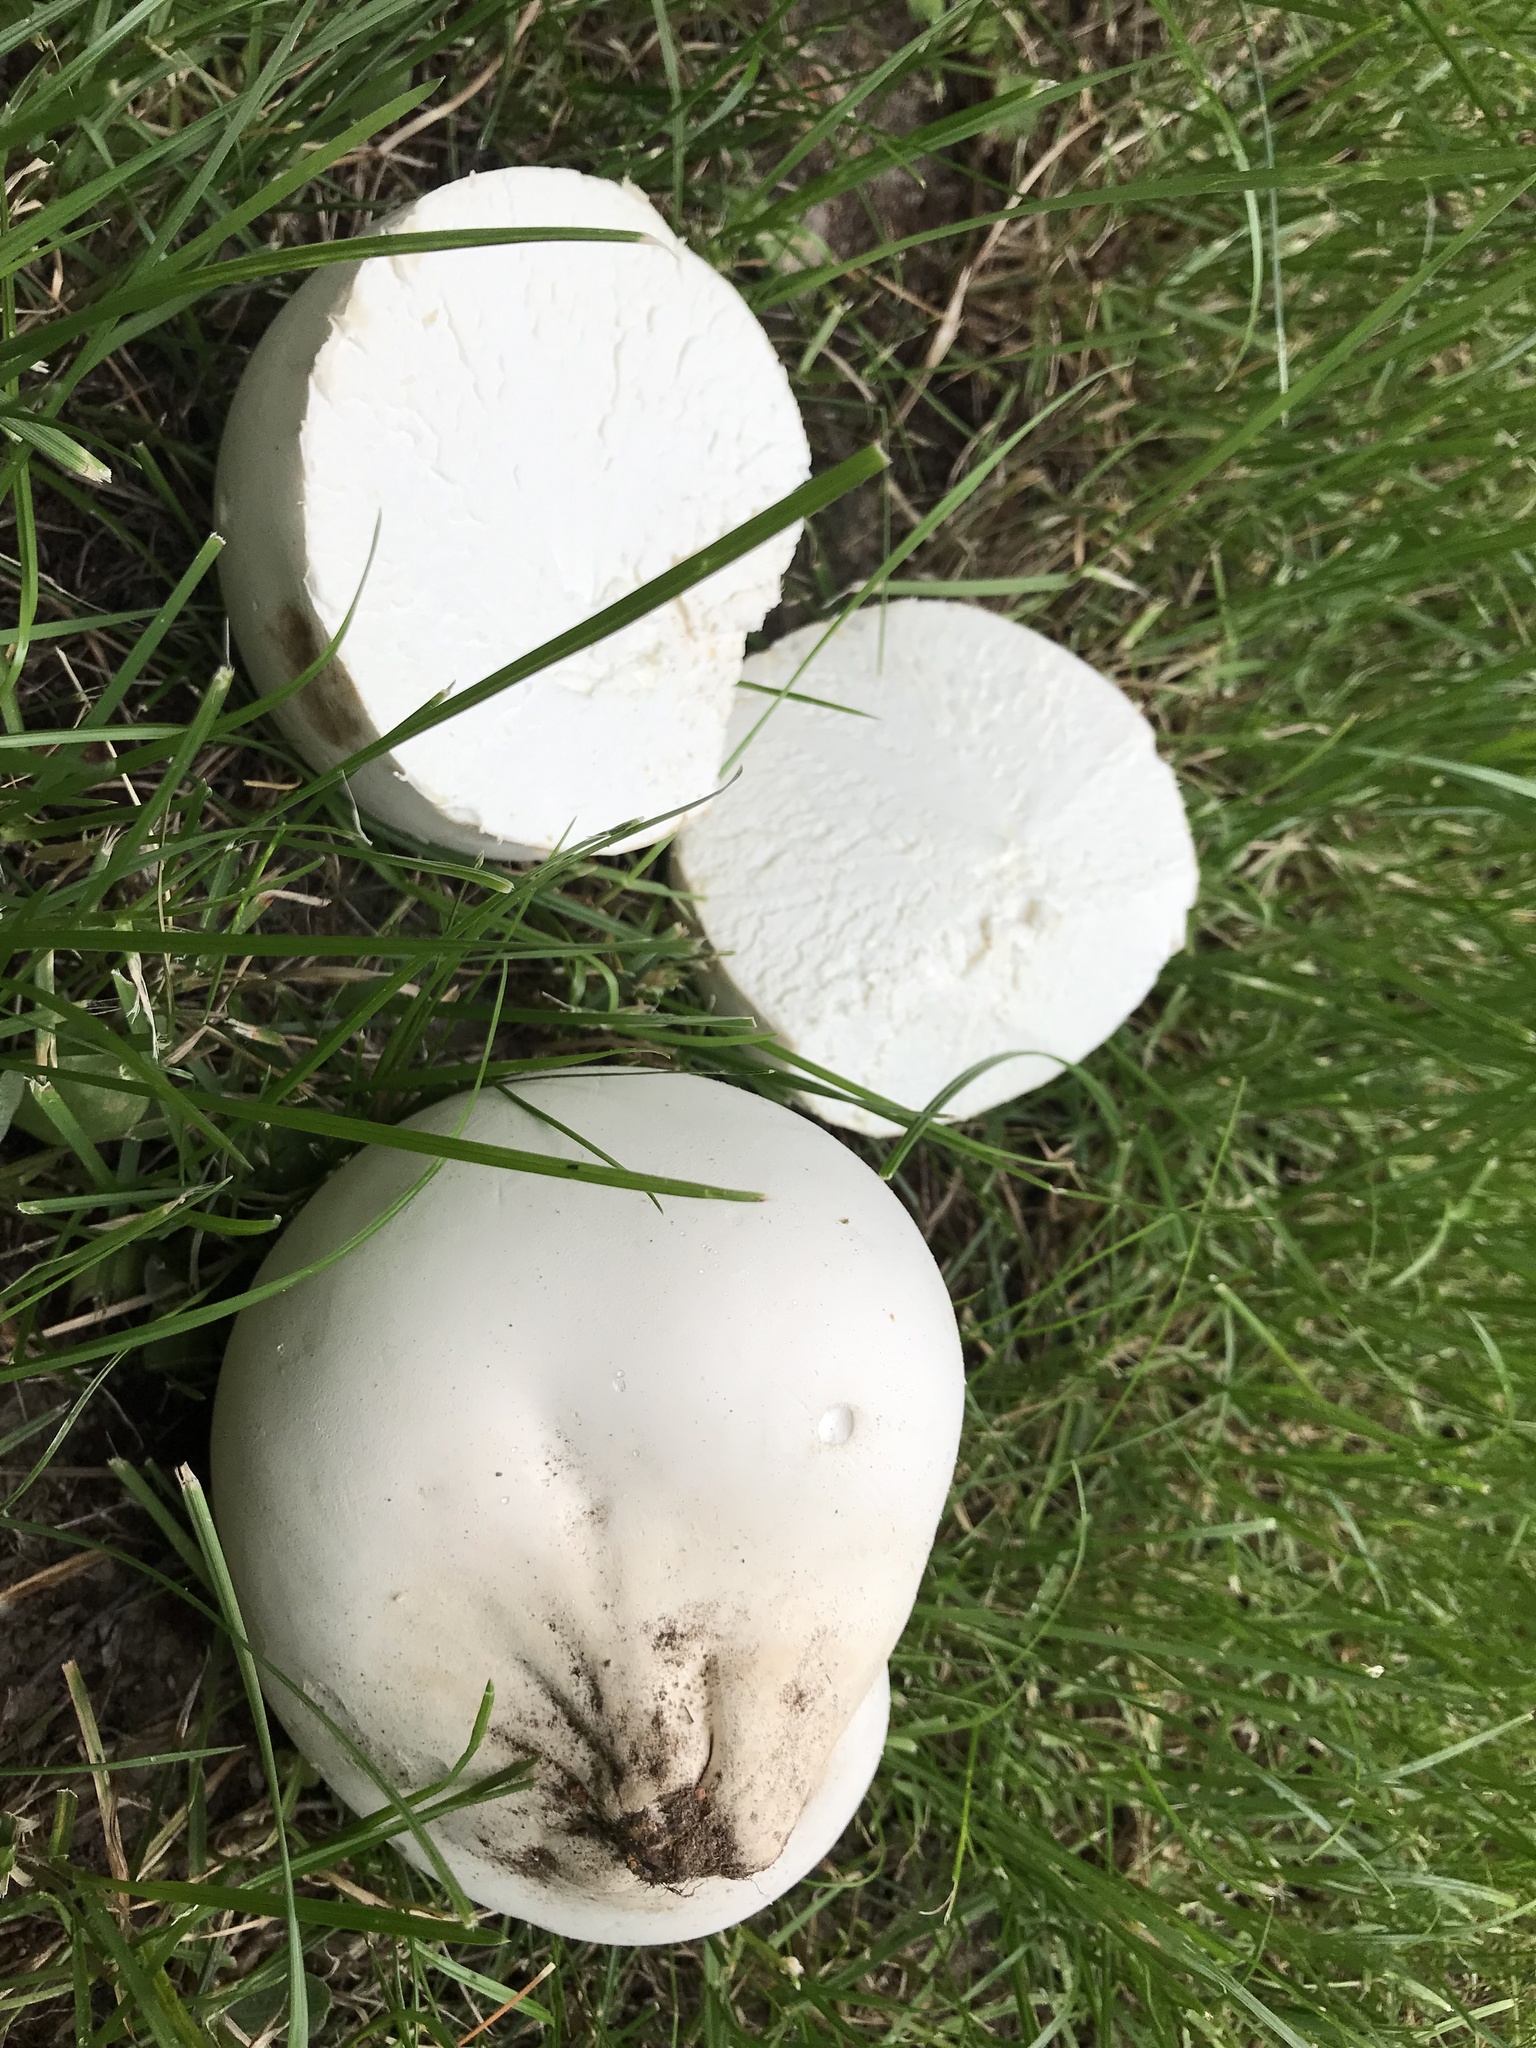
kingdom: Fungi
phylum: Basidiomycota
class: Agaricomycetes
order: Agaricales
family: Lycoperdaceae
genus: Calvatia
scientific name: Calvatia gigantea
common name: Giant puffball
